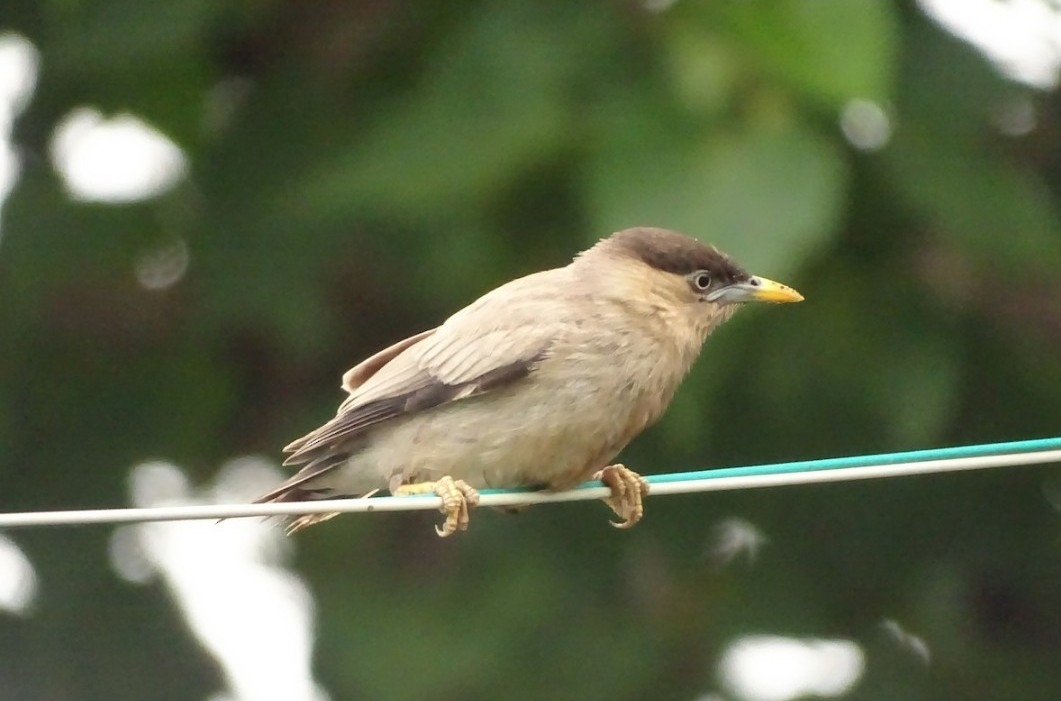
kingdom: Animalia
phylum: Chordata
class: Aves
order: Passeriformes
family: Sturnidae
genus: Sturnia
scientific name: Sturnia pagodarum
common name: Brahminy starling
